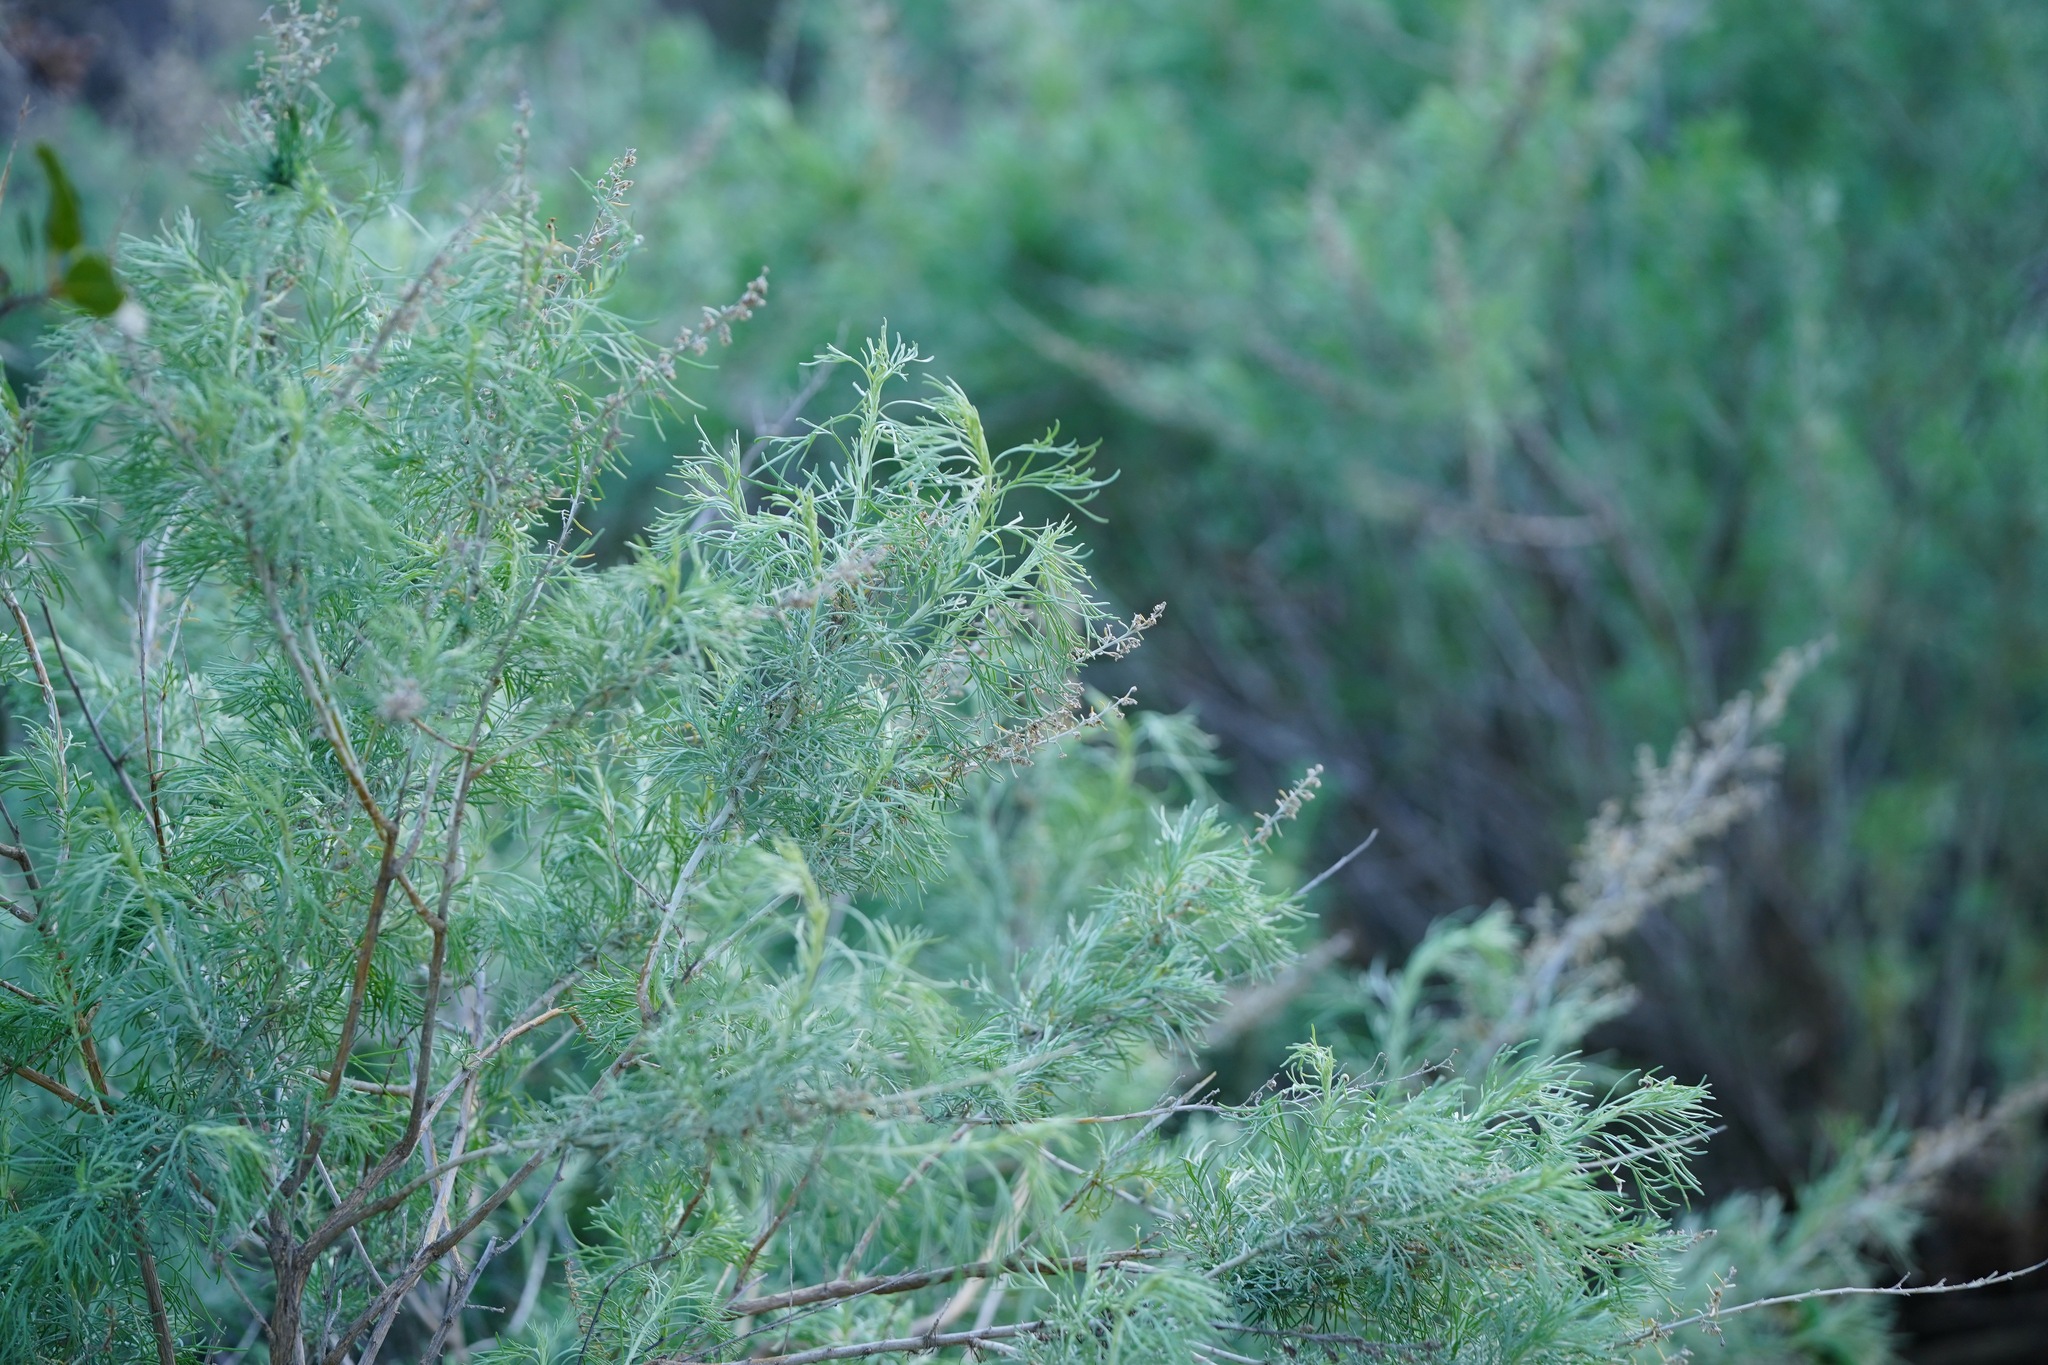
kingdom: Plantae
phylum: Tracheophyta
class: Magnoliopsida
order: Asterales
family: Asteraceae
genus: Artemisia
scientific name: Artemisia californica
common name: California sagebrush
